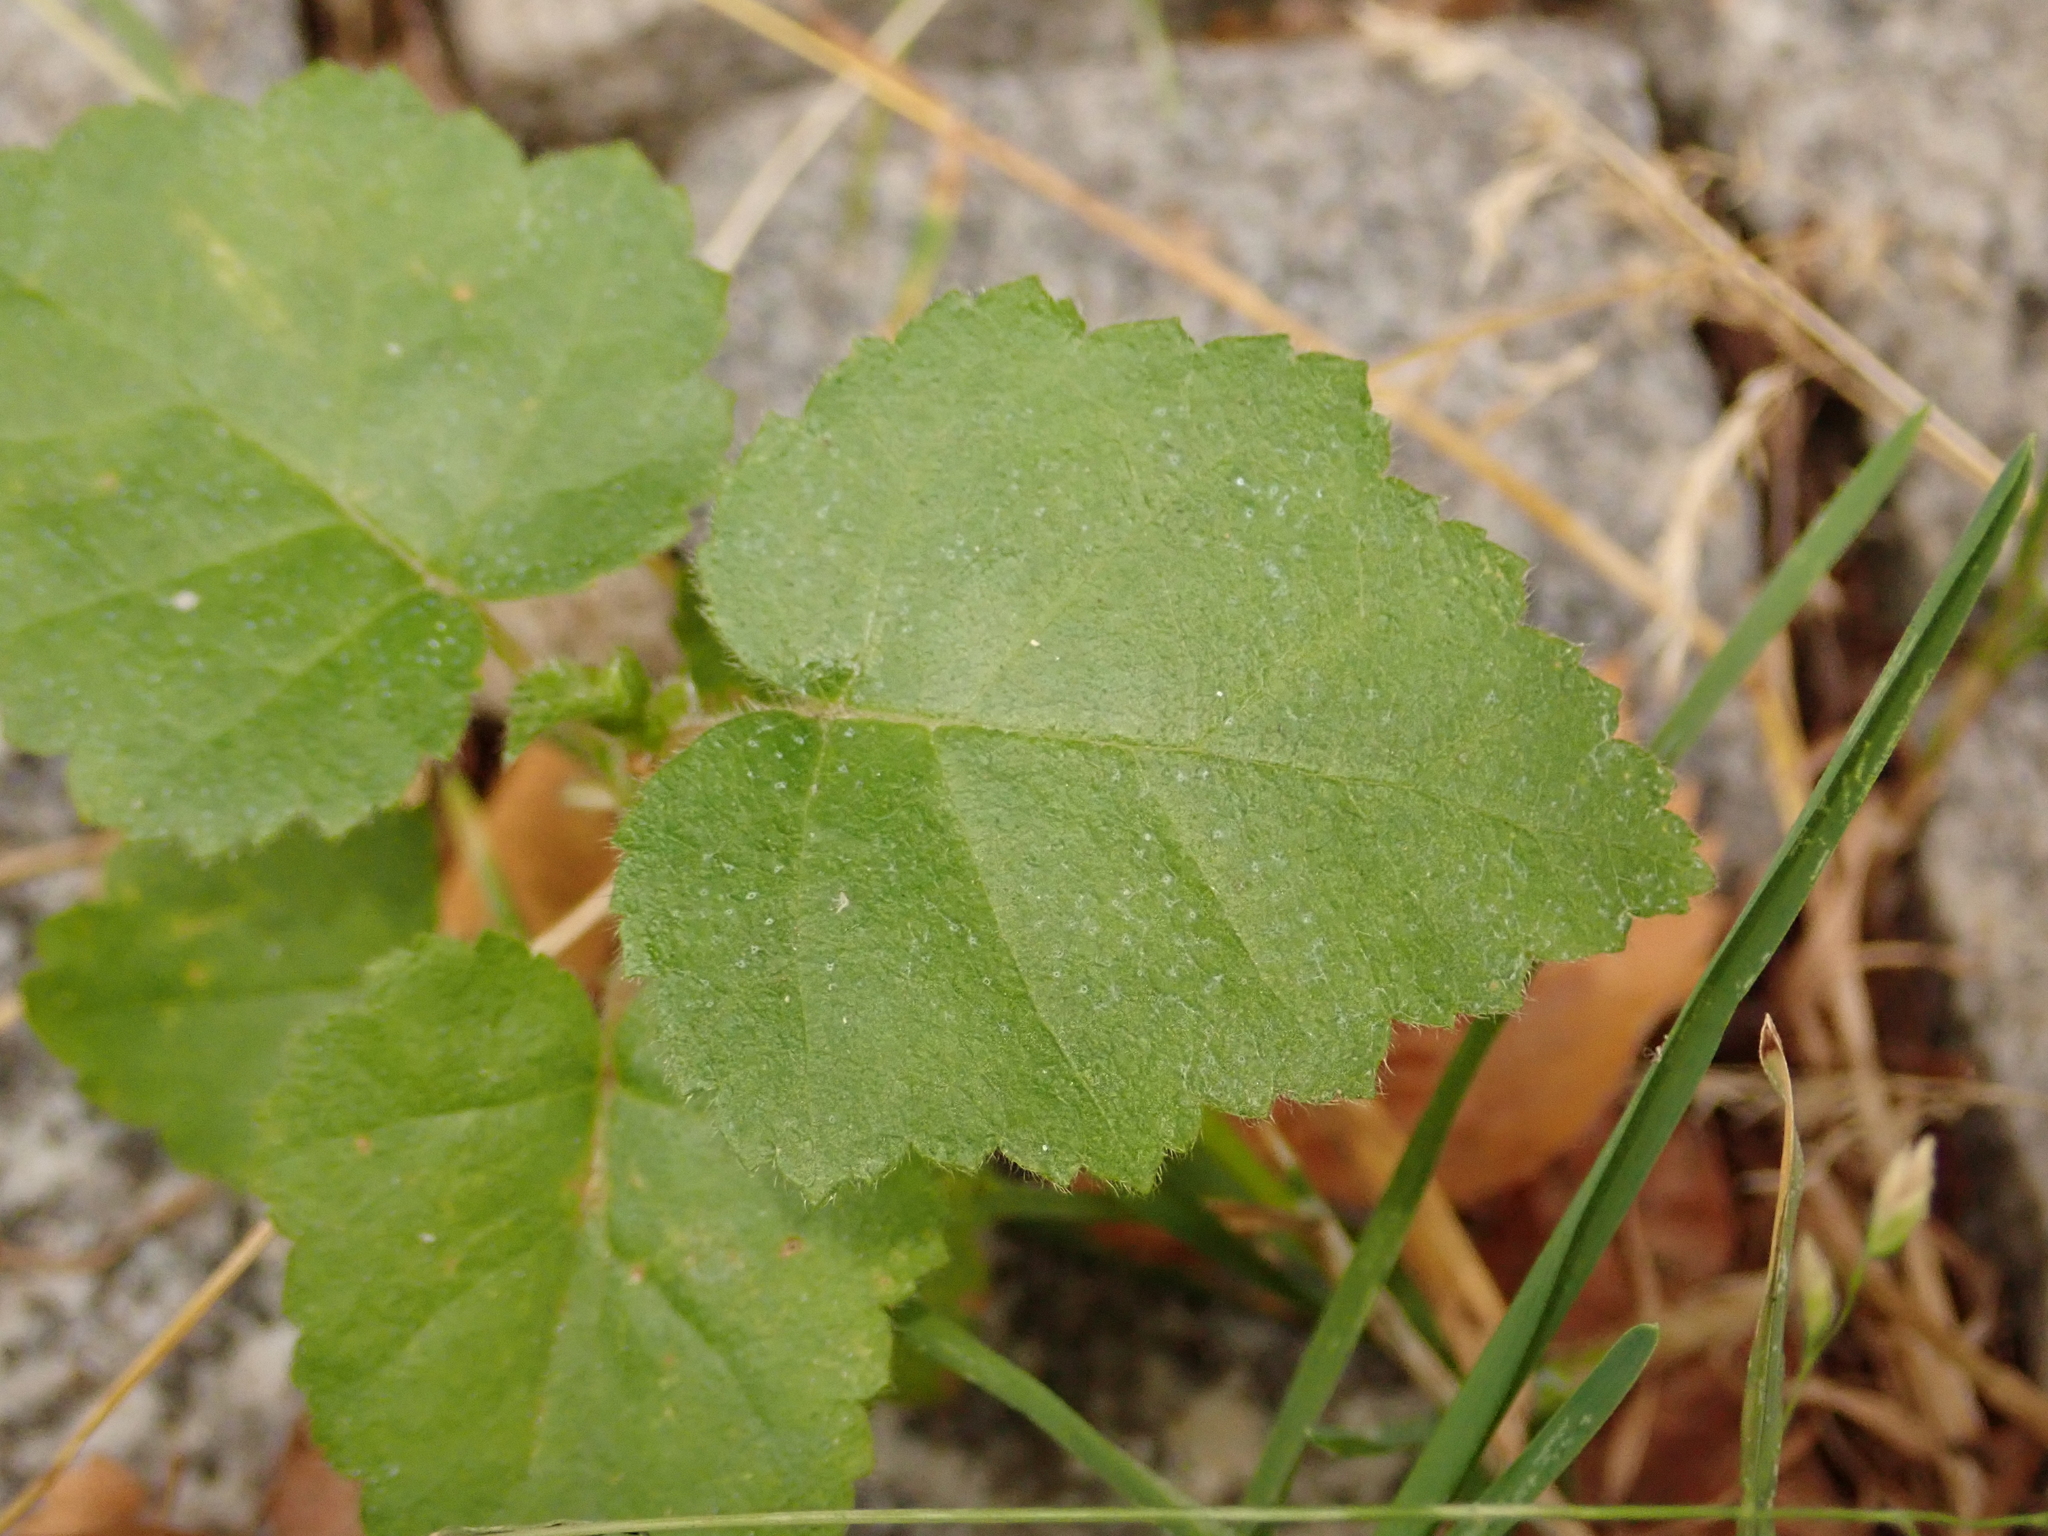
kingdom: Plantae
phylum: Tracheophyta
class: Magnoliopsida
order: Fagales
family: Betulaceae
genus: Betula
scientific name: Betula pendula
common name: Silver birch
